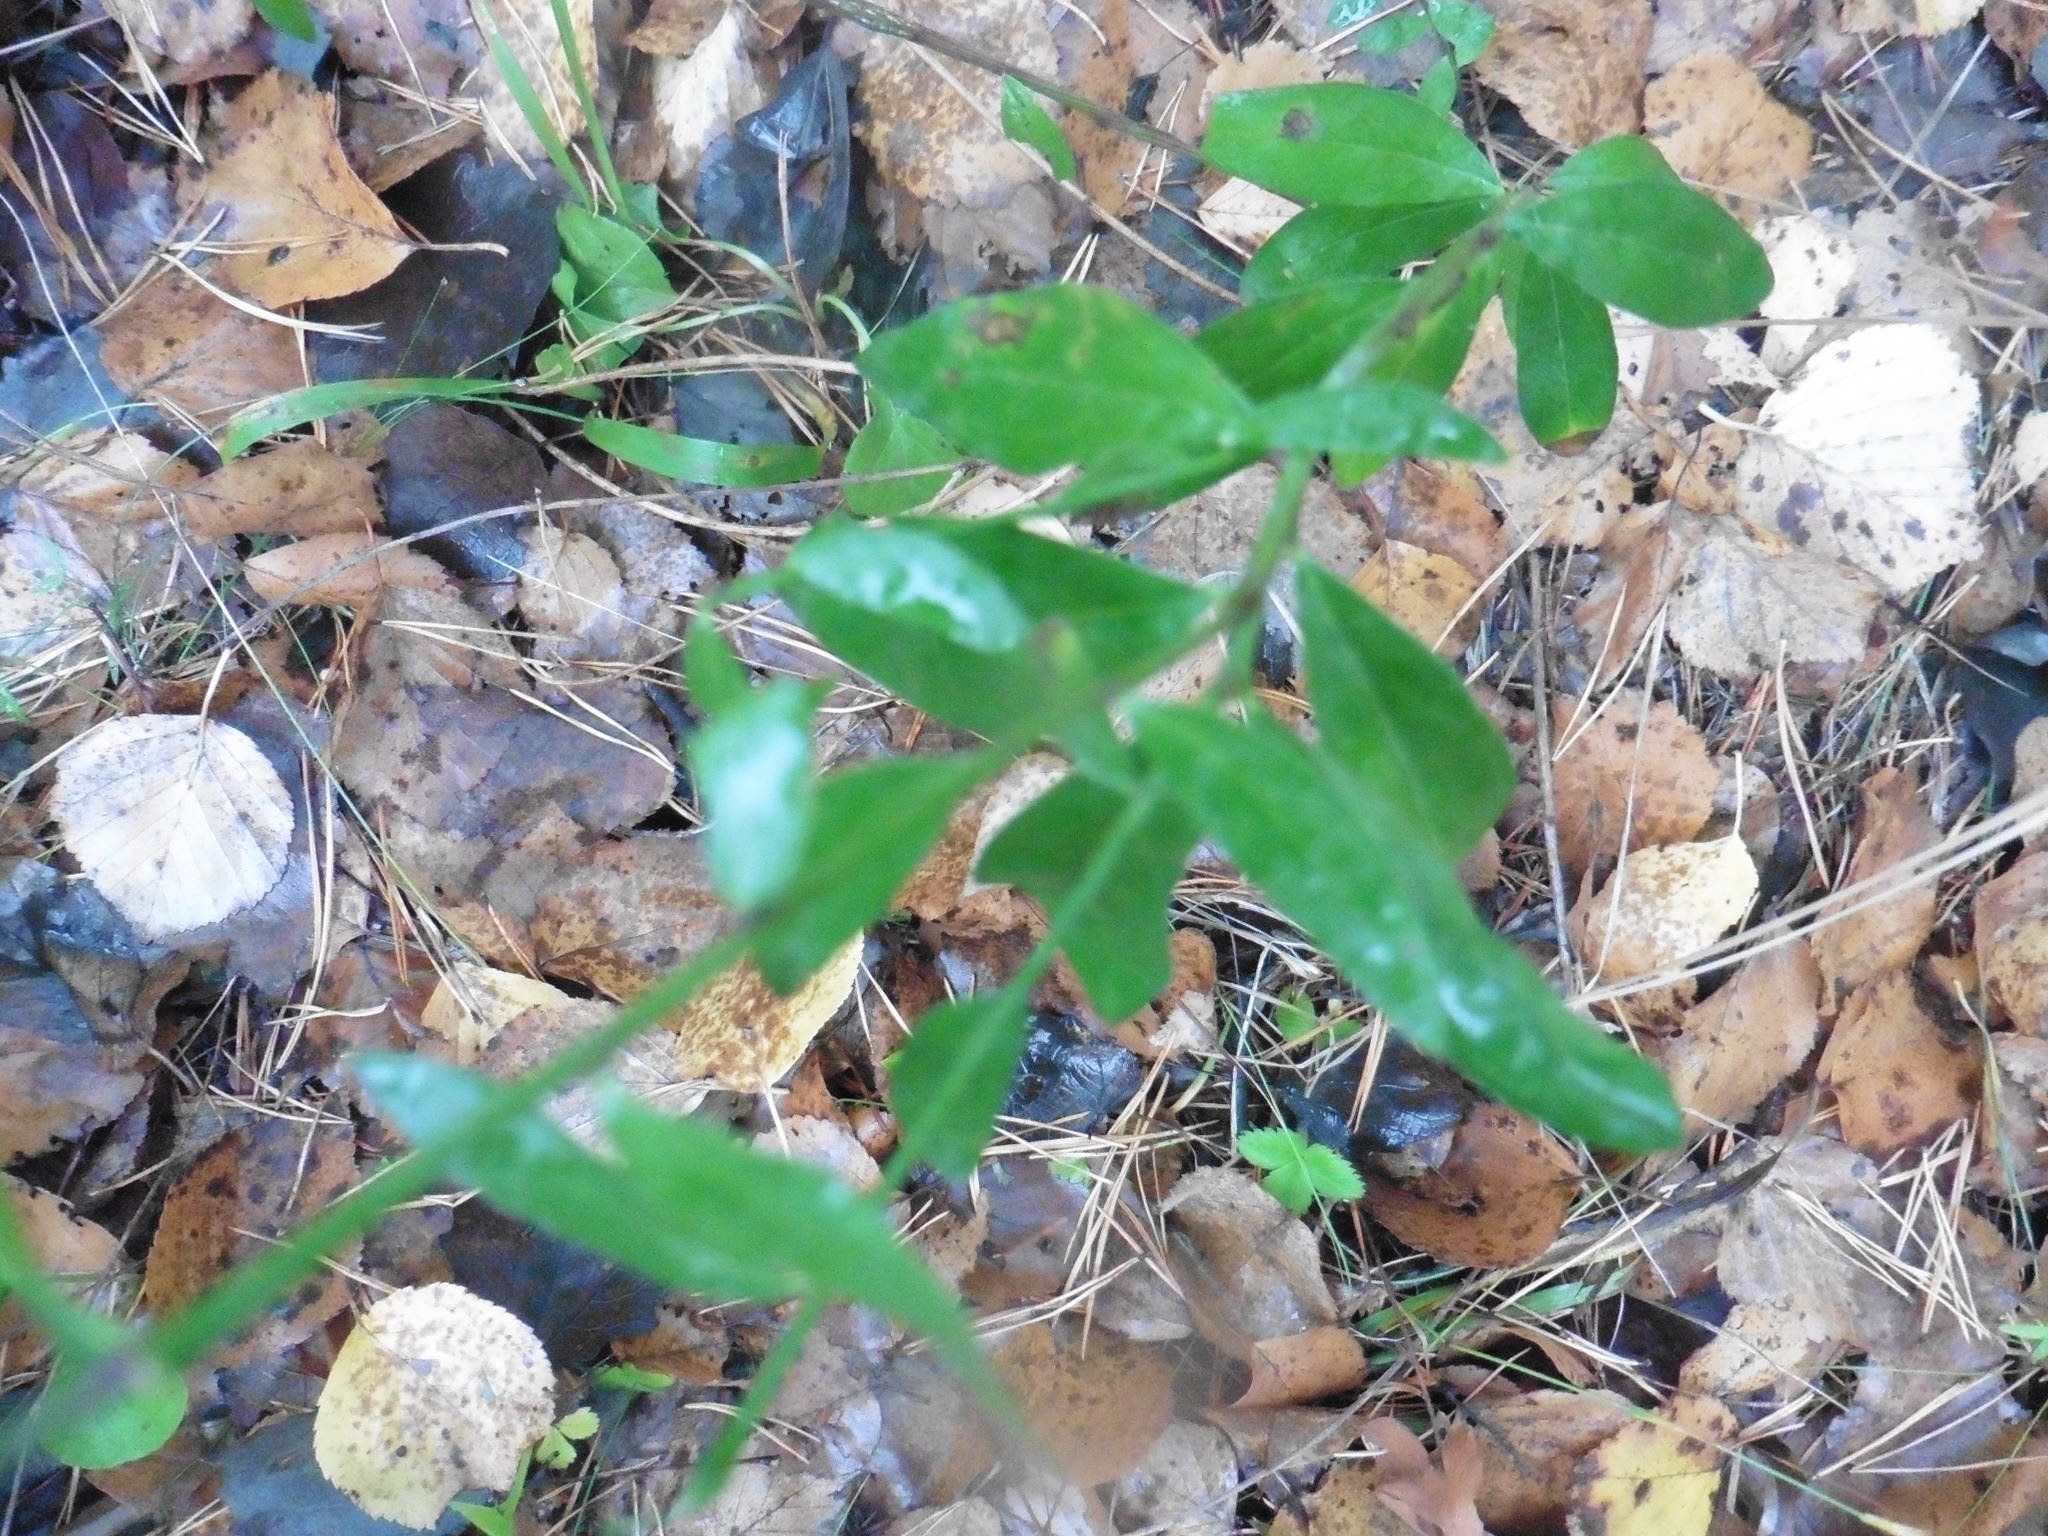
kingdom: Plantae
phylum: Tracheophyta
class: Magnoliopsida
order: Fabales
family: Fabaceae
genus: Genista
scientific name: Genista tinctoria
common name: Dyer's greenweed
